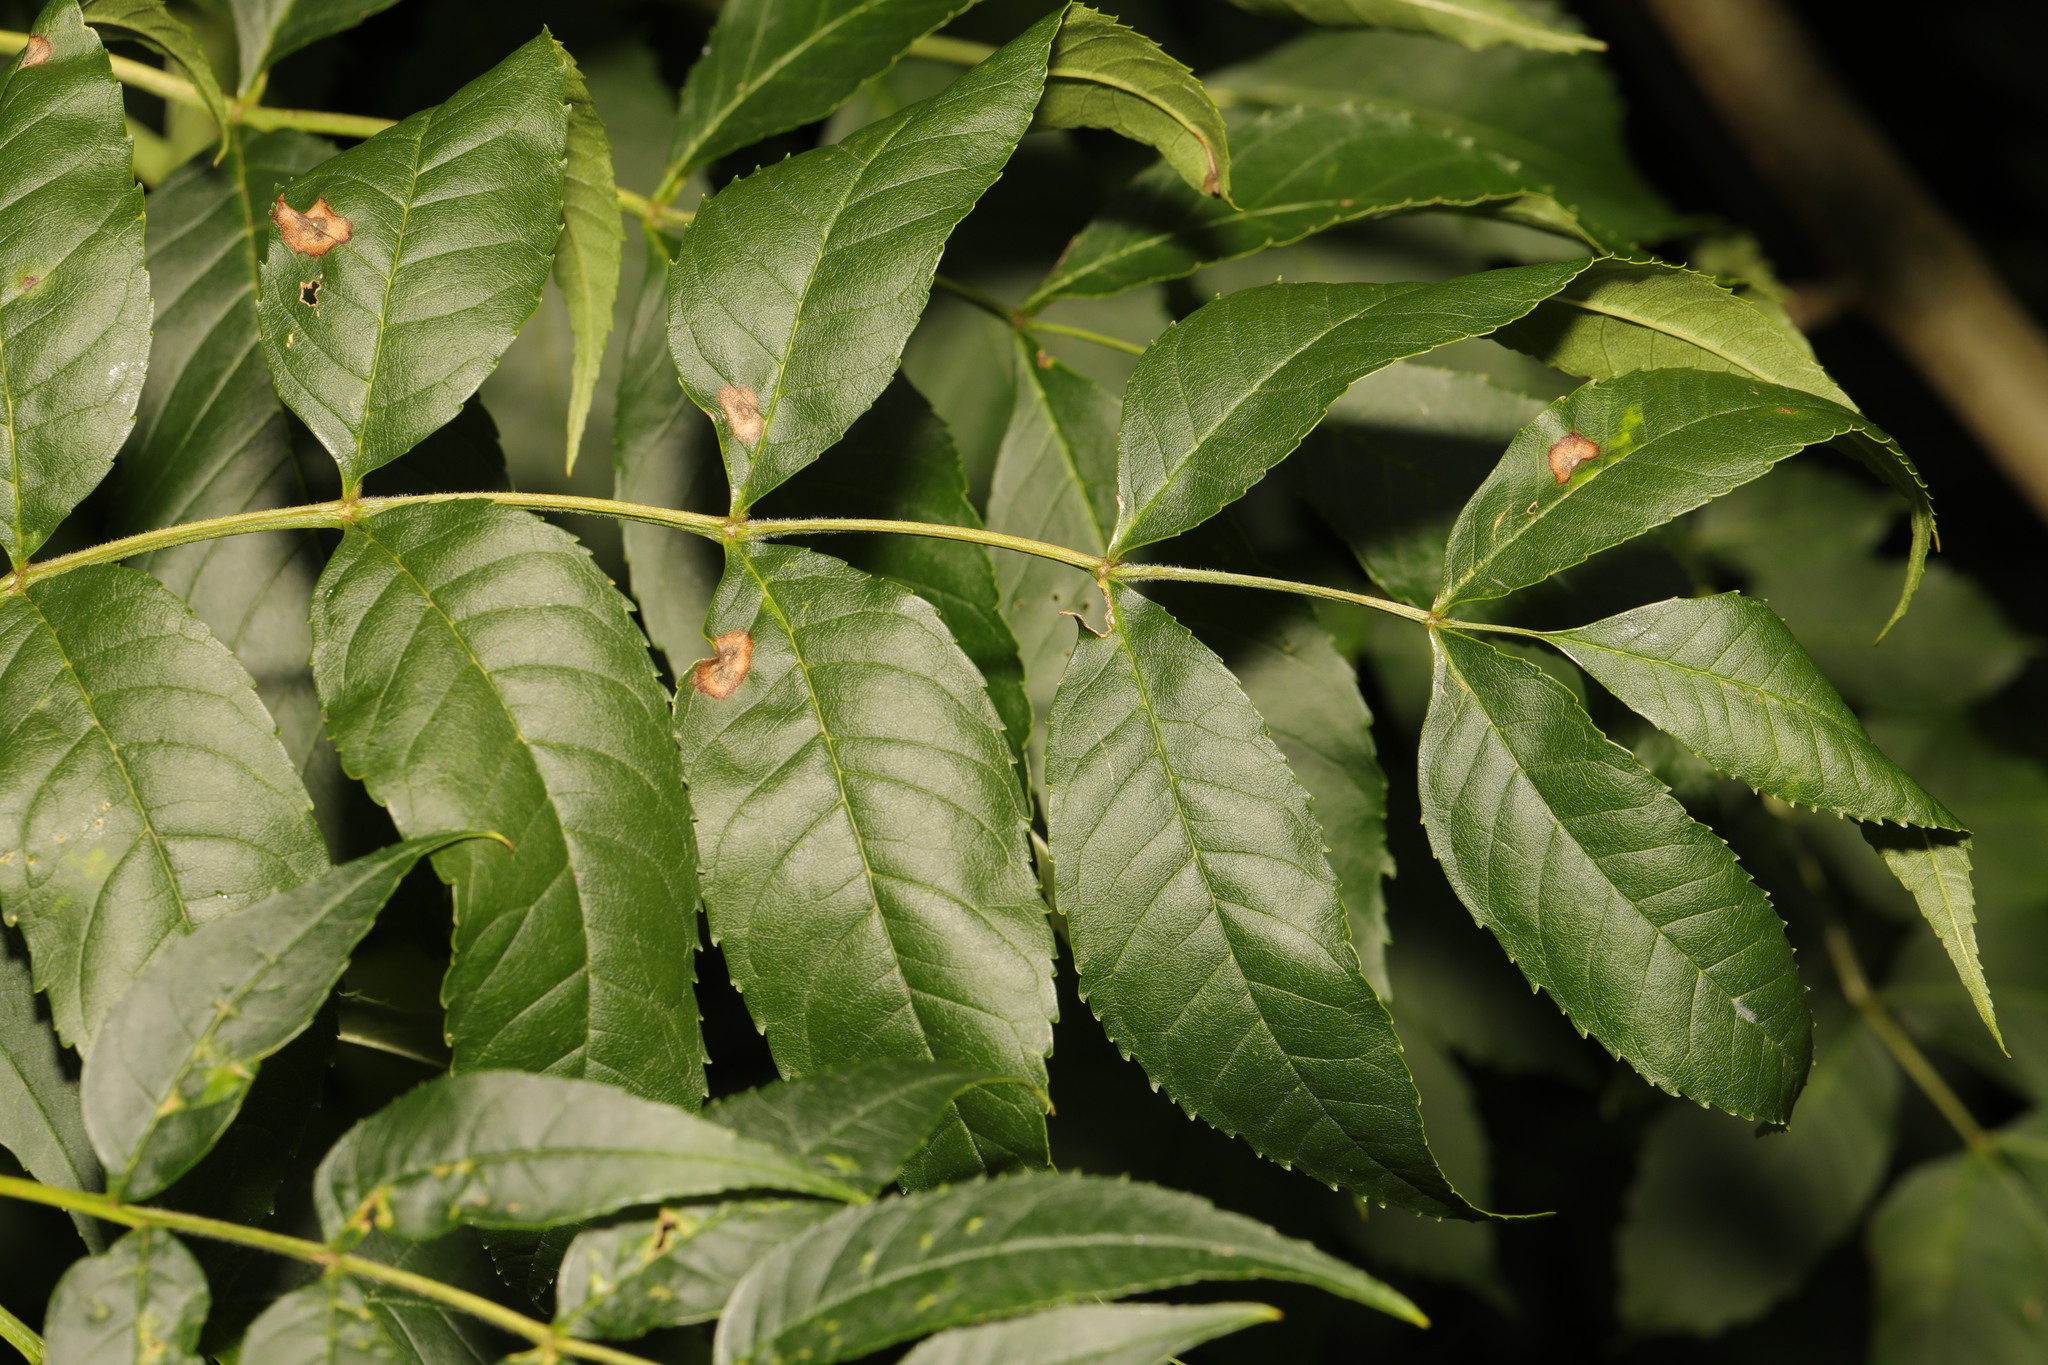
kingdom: Plantae
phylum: Tracheophyta
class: Magnoliopsida
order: Lamiales
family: Oleaceae
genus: Fraxinus
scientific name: Fraxinus excelsior
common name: European ash
